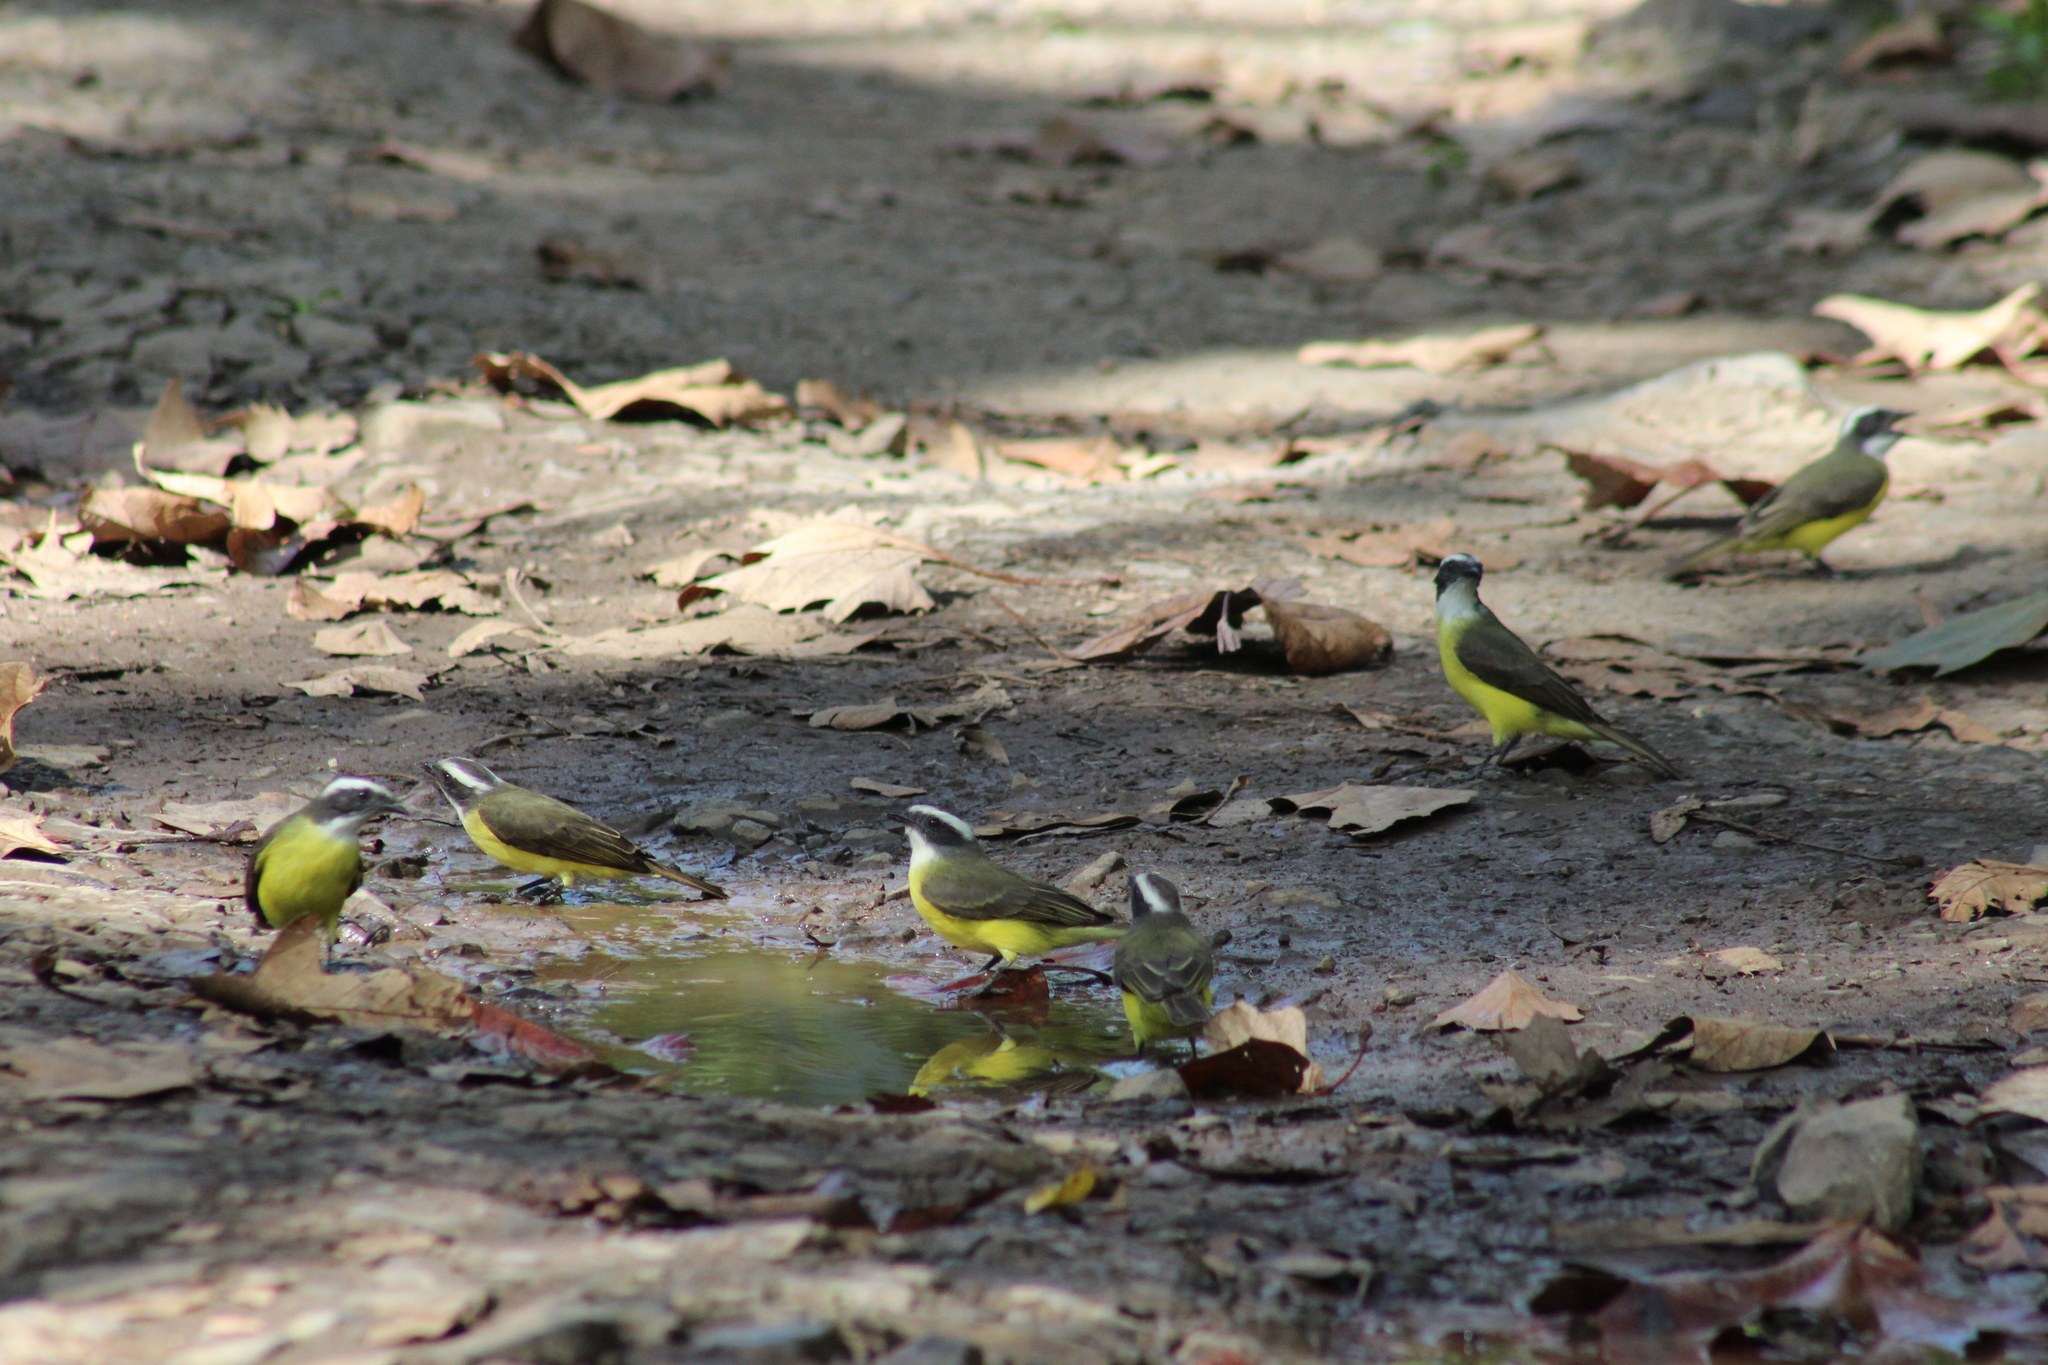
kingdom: Animalia
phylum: Chordata
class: Aves
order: Passeriformes
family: Tyrannidae
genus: Myiozetetes
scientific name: Myiozetetes similis
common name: Social flycatcher
